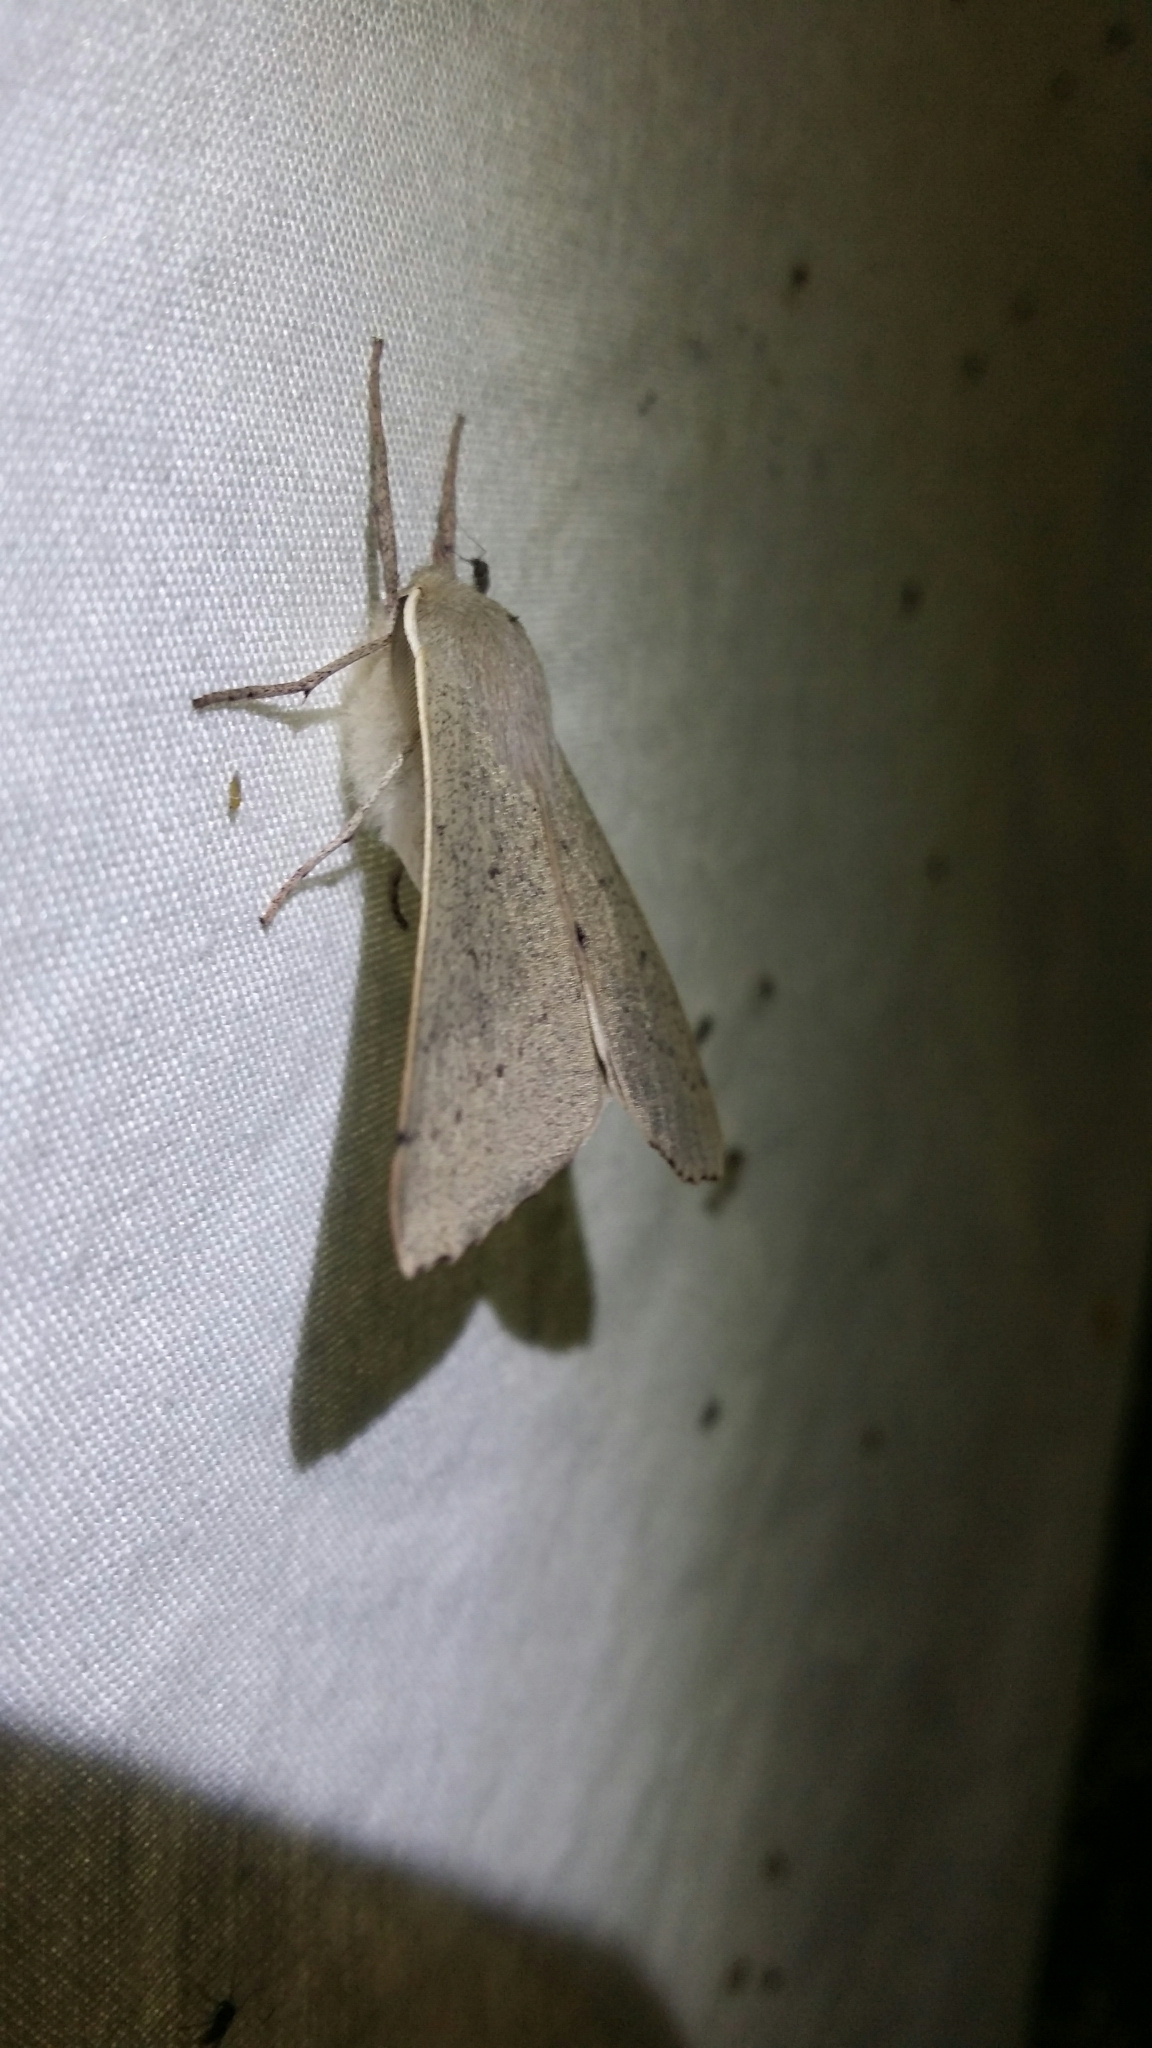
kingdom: Animalia
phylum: Arthropoda
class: Insecta
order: Lepidoptera
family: Geometridae
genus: Arhodia
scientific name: Arhodia lasiocamparia
